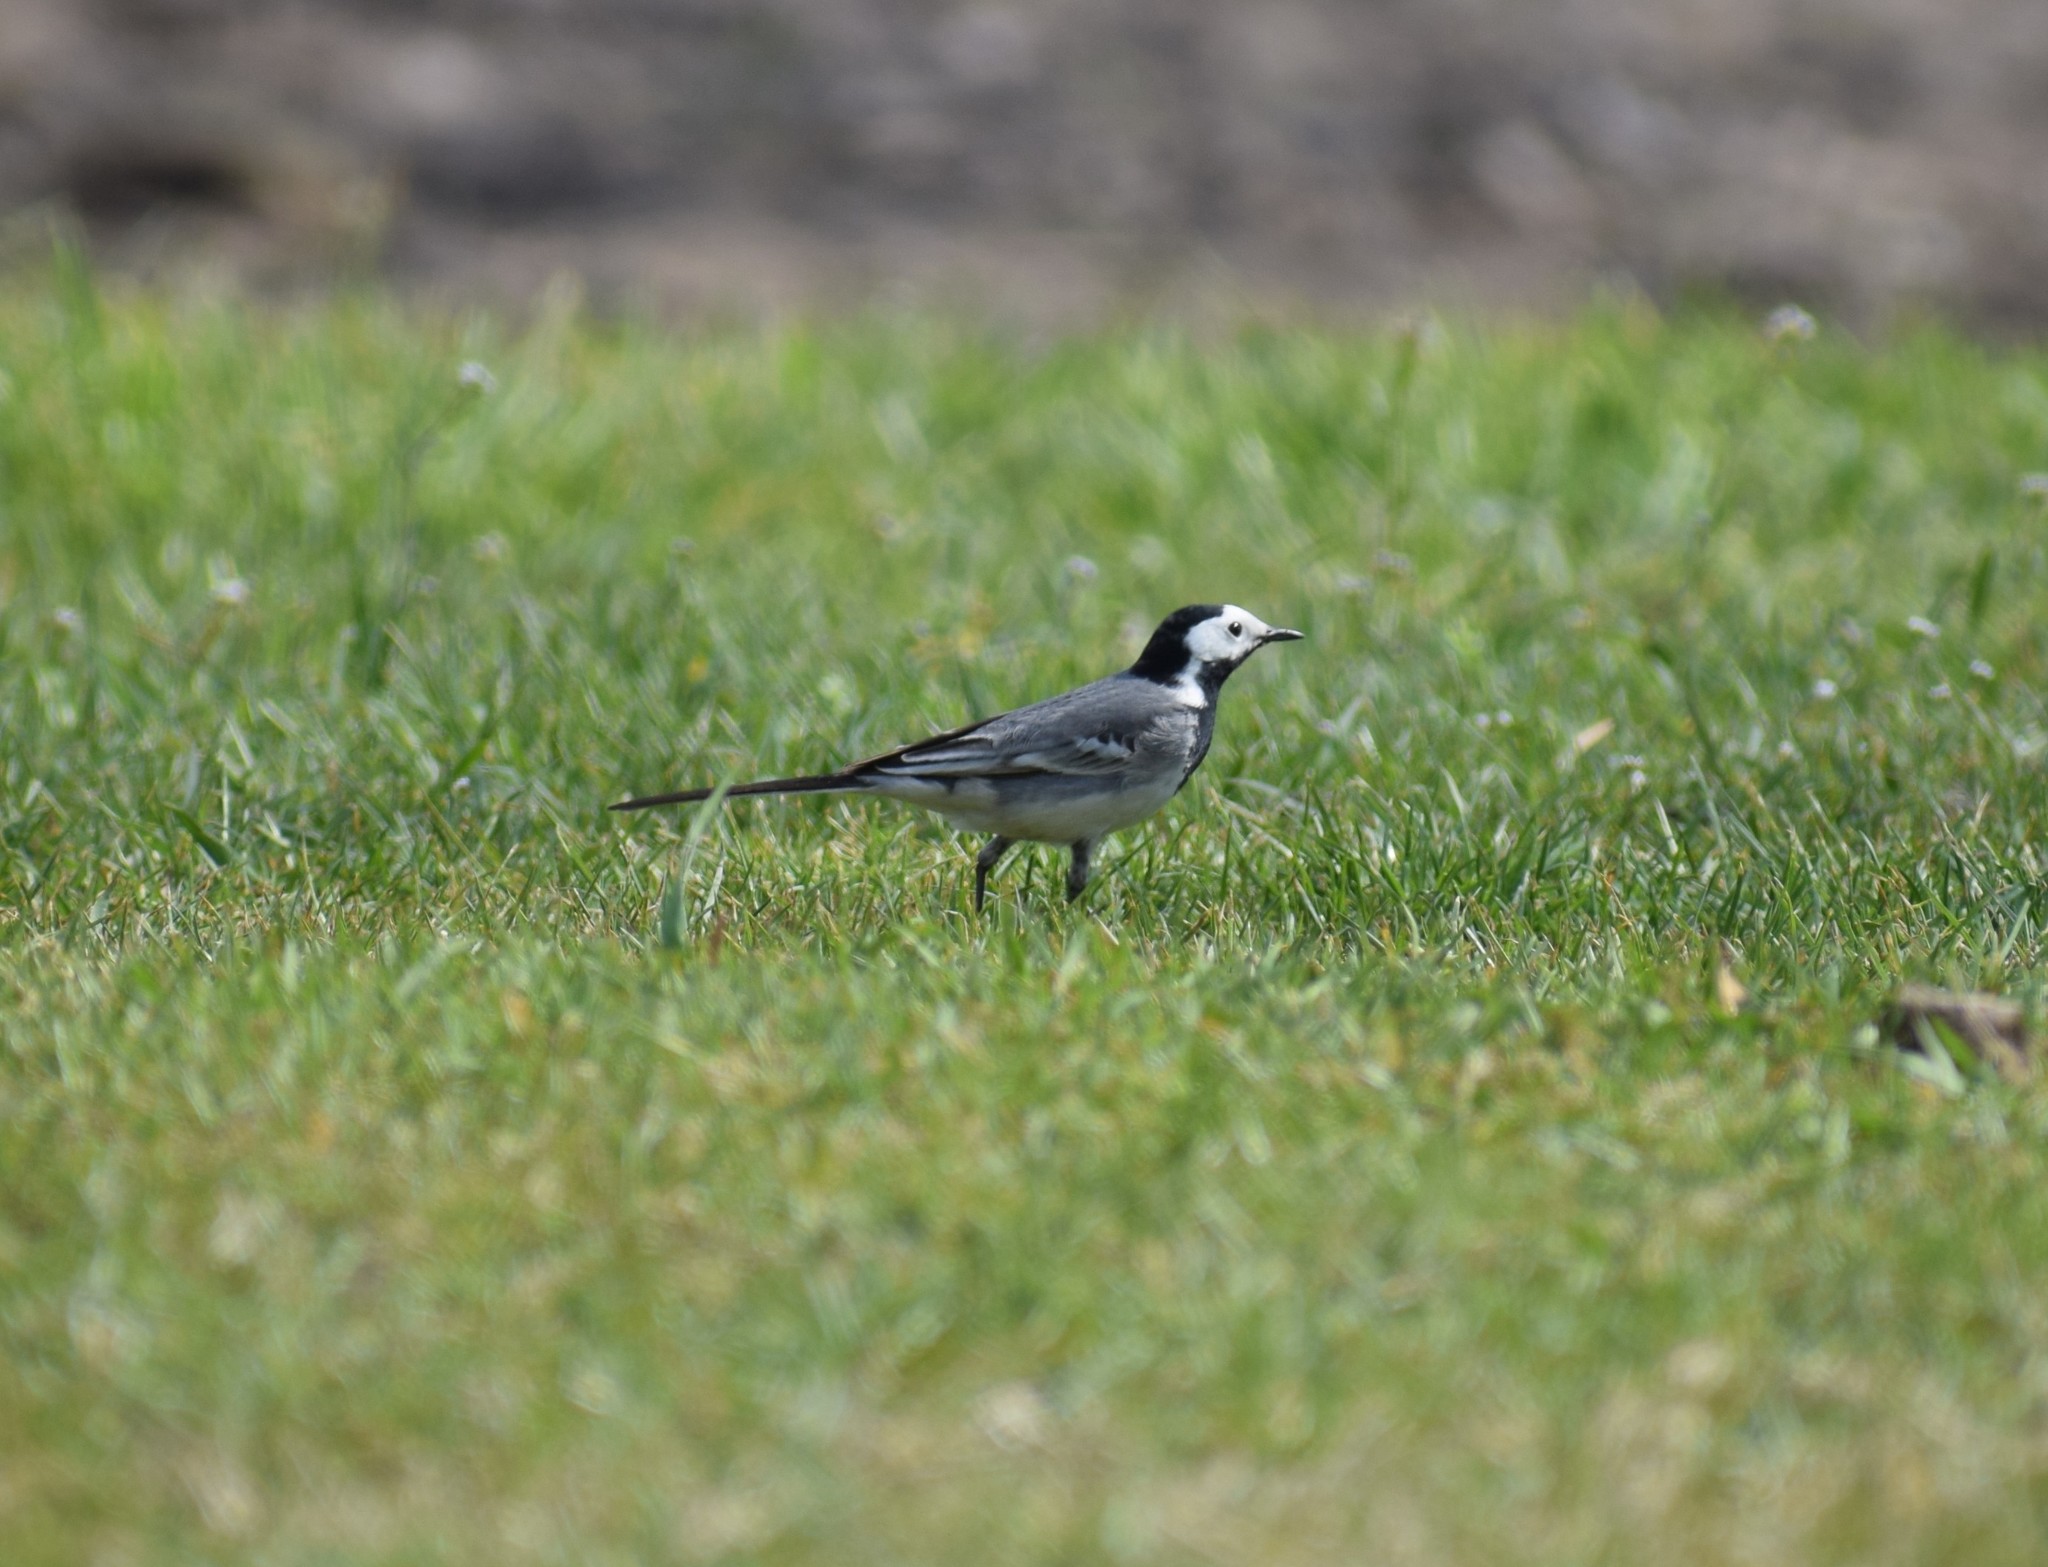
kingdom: Animalia
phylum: Chordata
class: Aves
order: Passeriformes
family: Motacillidae
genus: Motacilla
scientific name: Motacilla alba
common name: White wagtail
